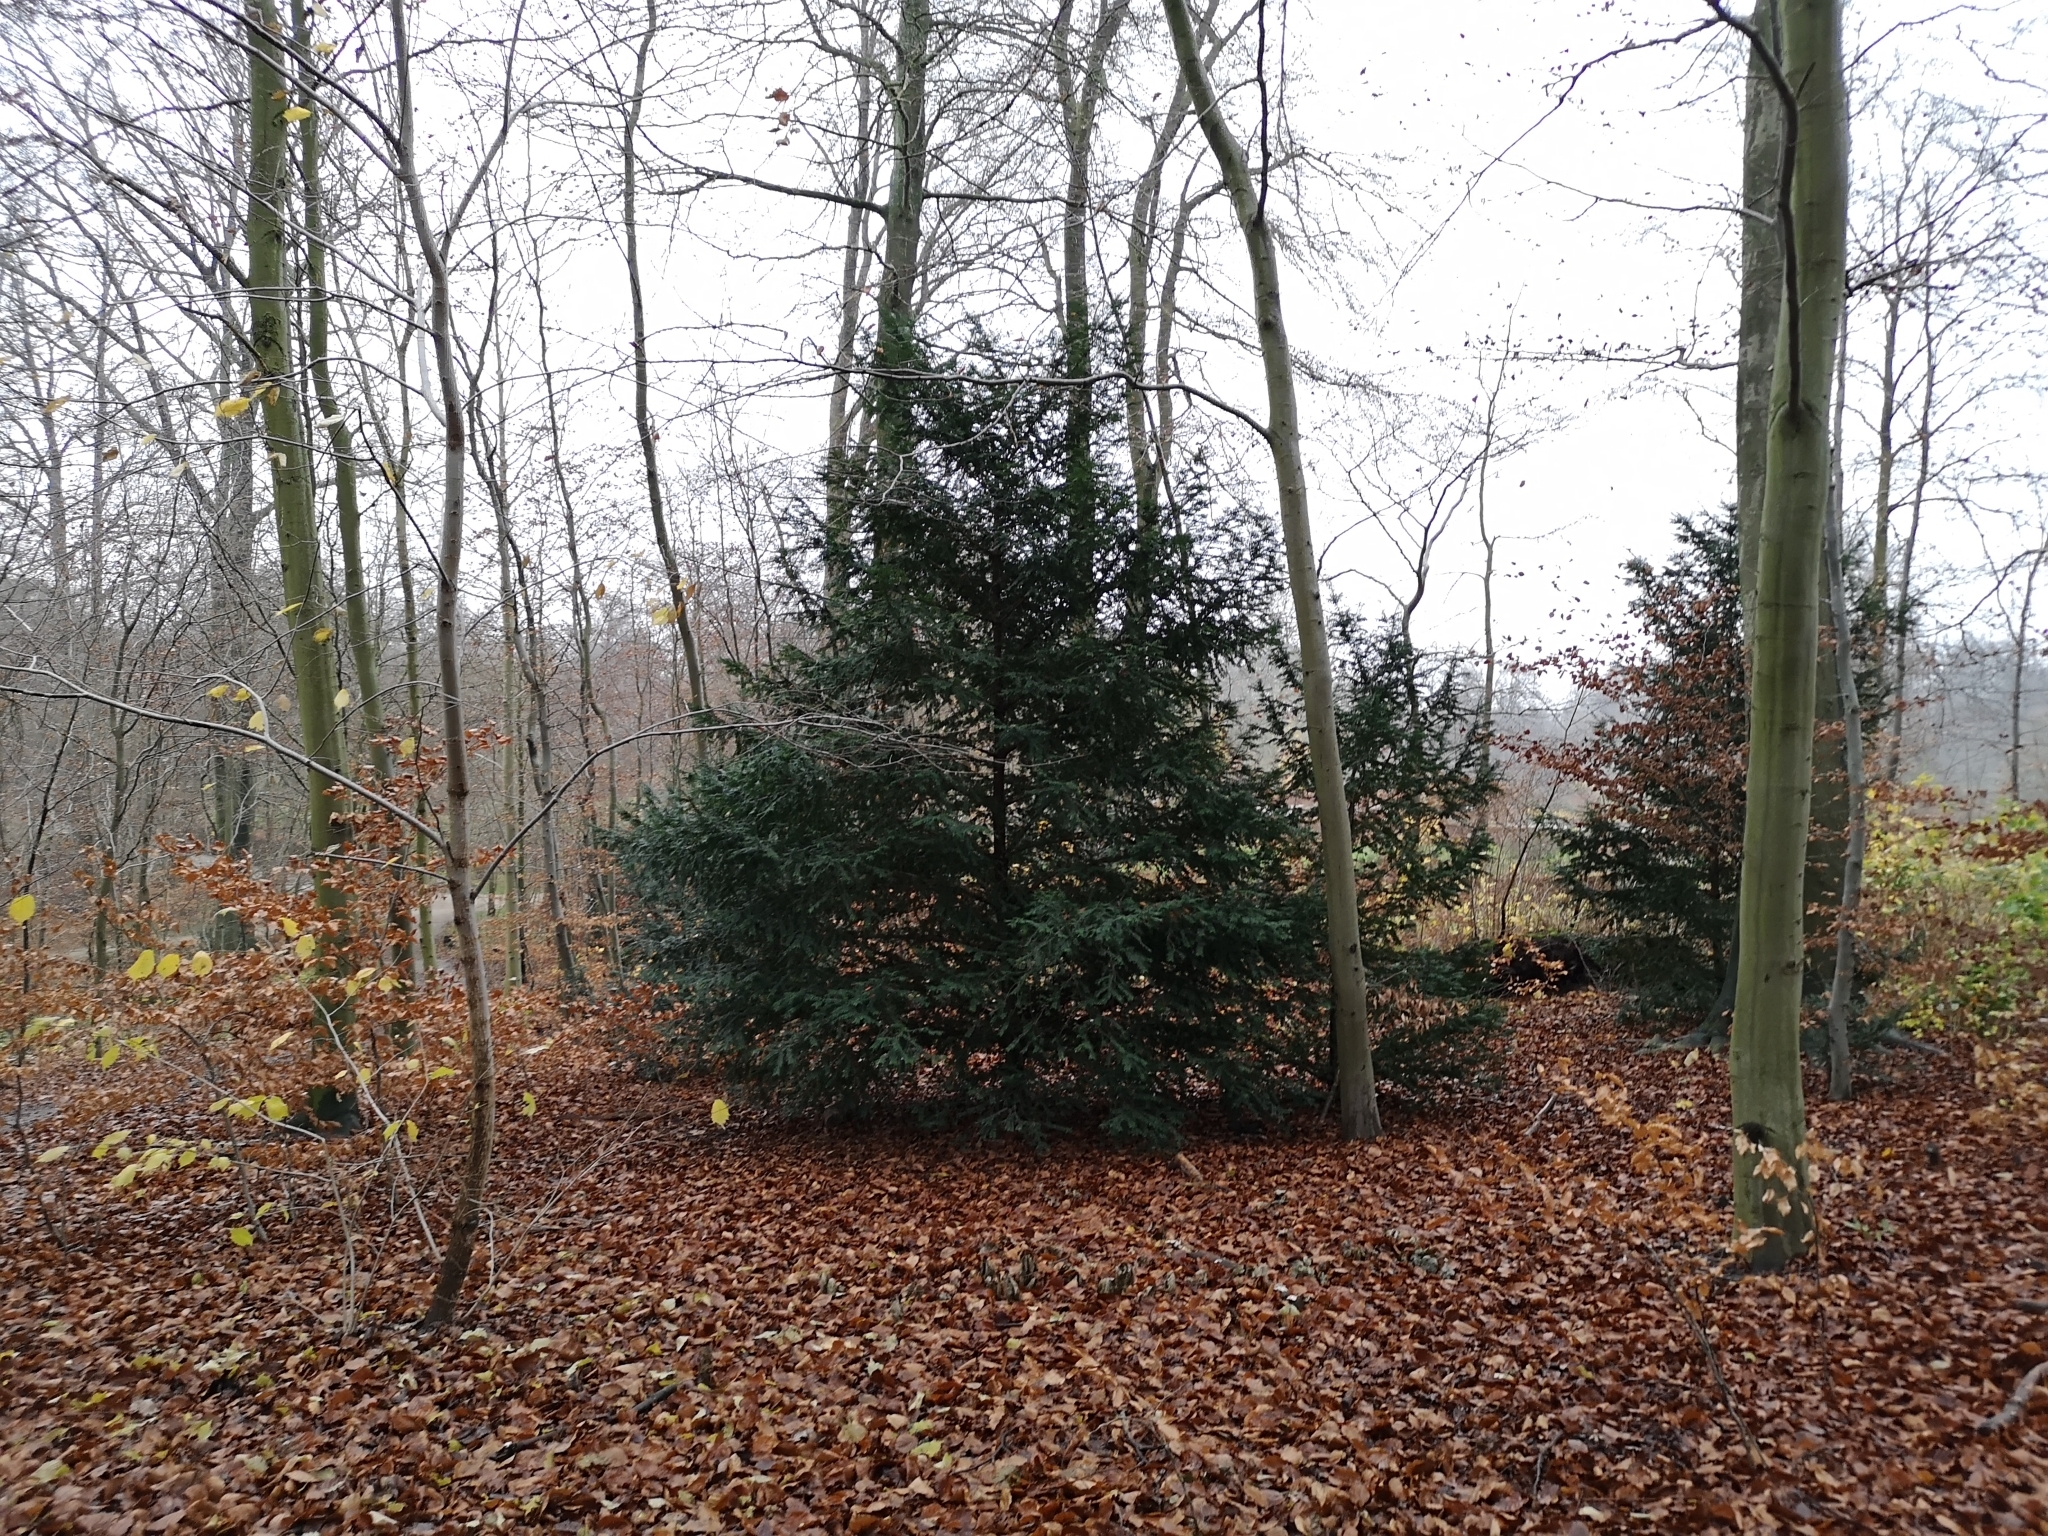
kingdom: Plantae
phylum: Tracheophyta
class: Pinopsida
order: Pinales
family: Taxaceae
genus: Taxus
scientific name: Taxus baccata
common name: Yew
